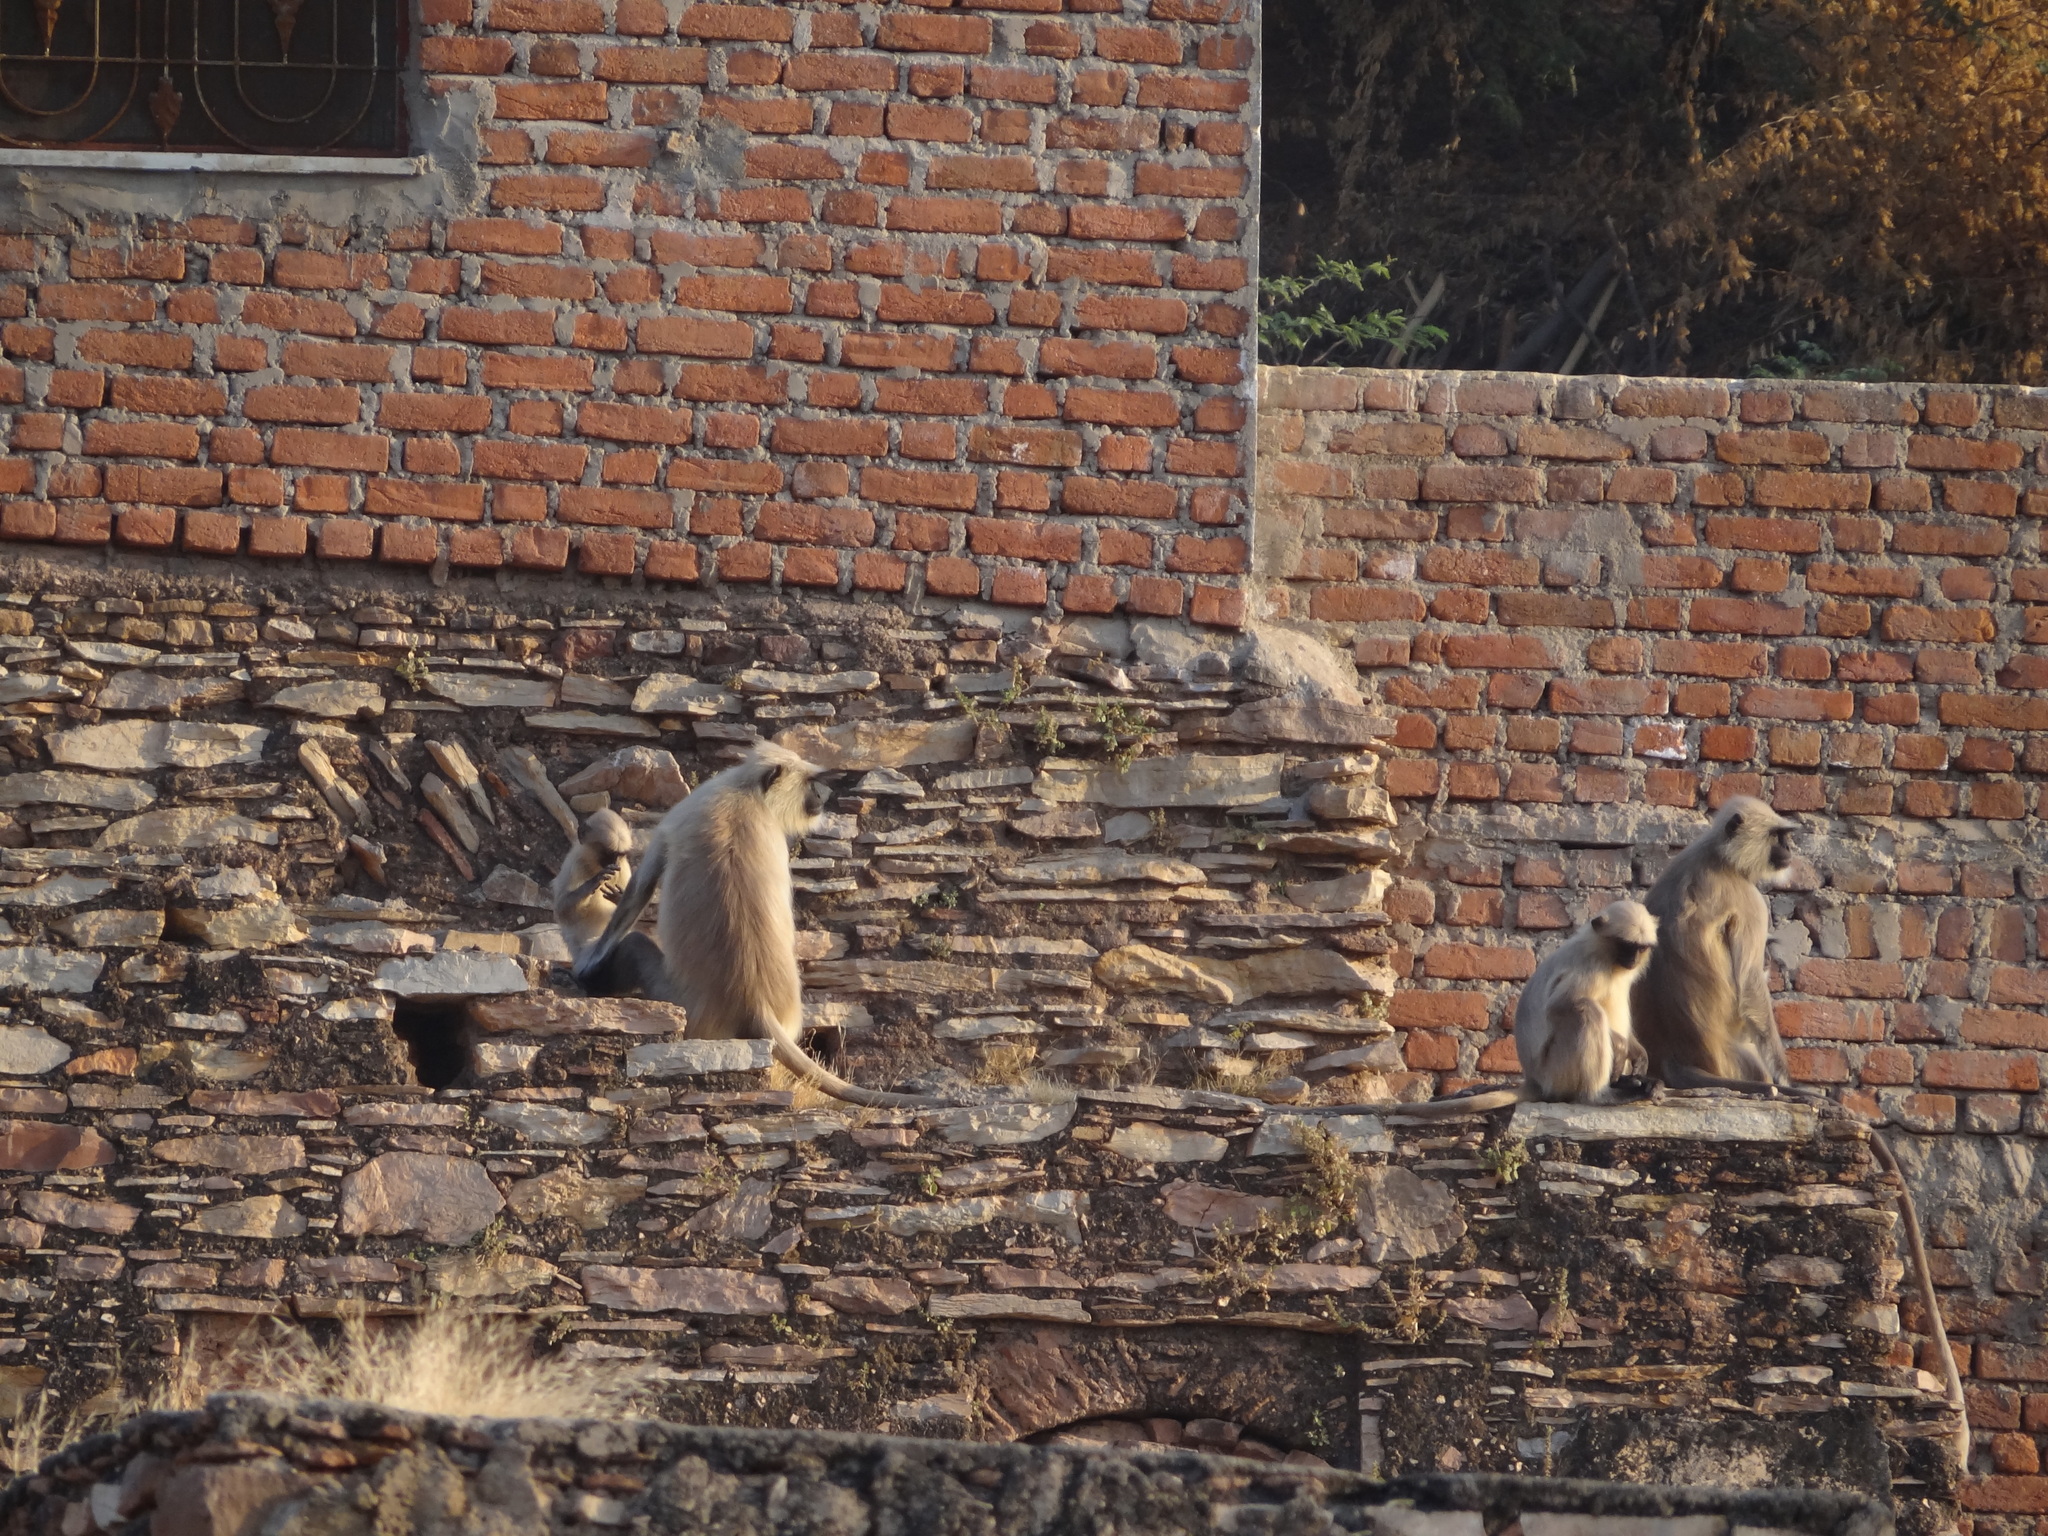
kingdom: Animalia
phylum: Chordata
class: Mammalia
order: Primates
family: Cercopithecidae
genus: Semnopithecus
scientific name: Semnopithecus entellus
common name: Northern plains gray langur
